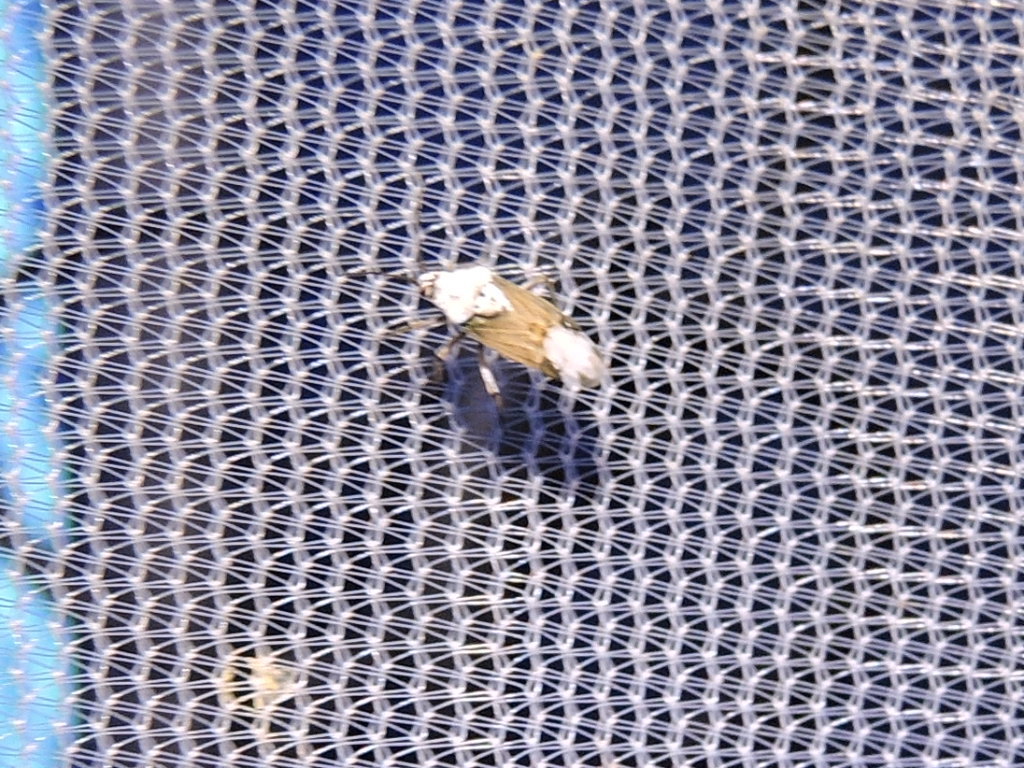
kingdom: Animalia
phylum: Arthropoda
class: Insecta
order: Hemiptera
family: Miridae
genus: Clivinema
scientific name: Clivinema villosa
